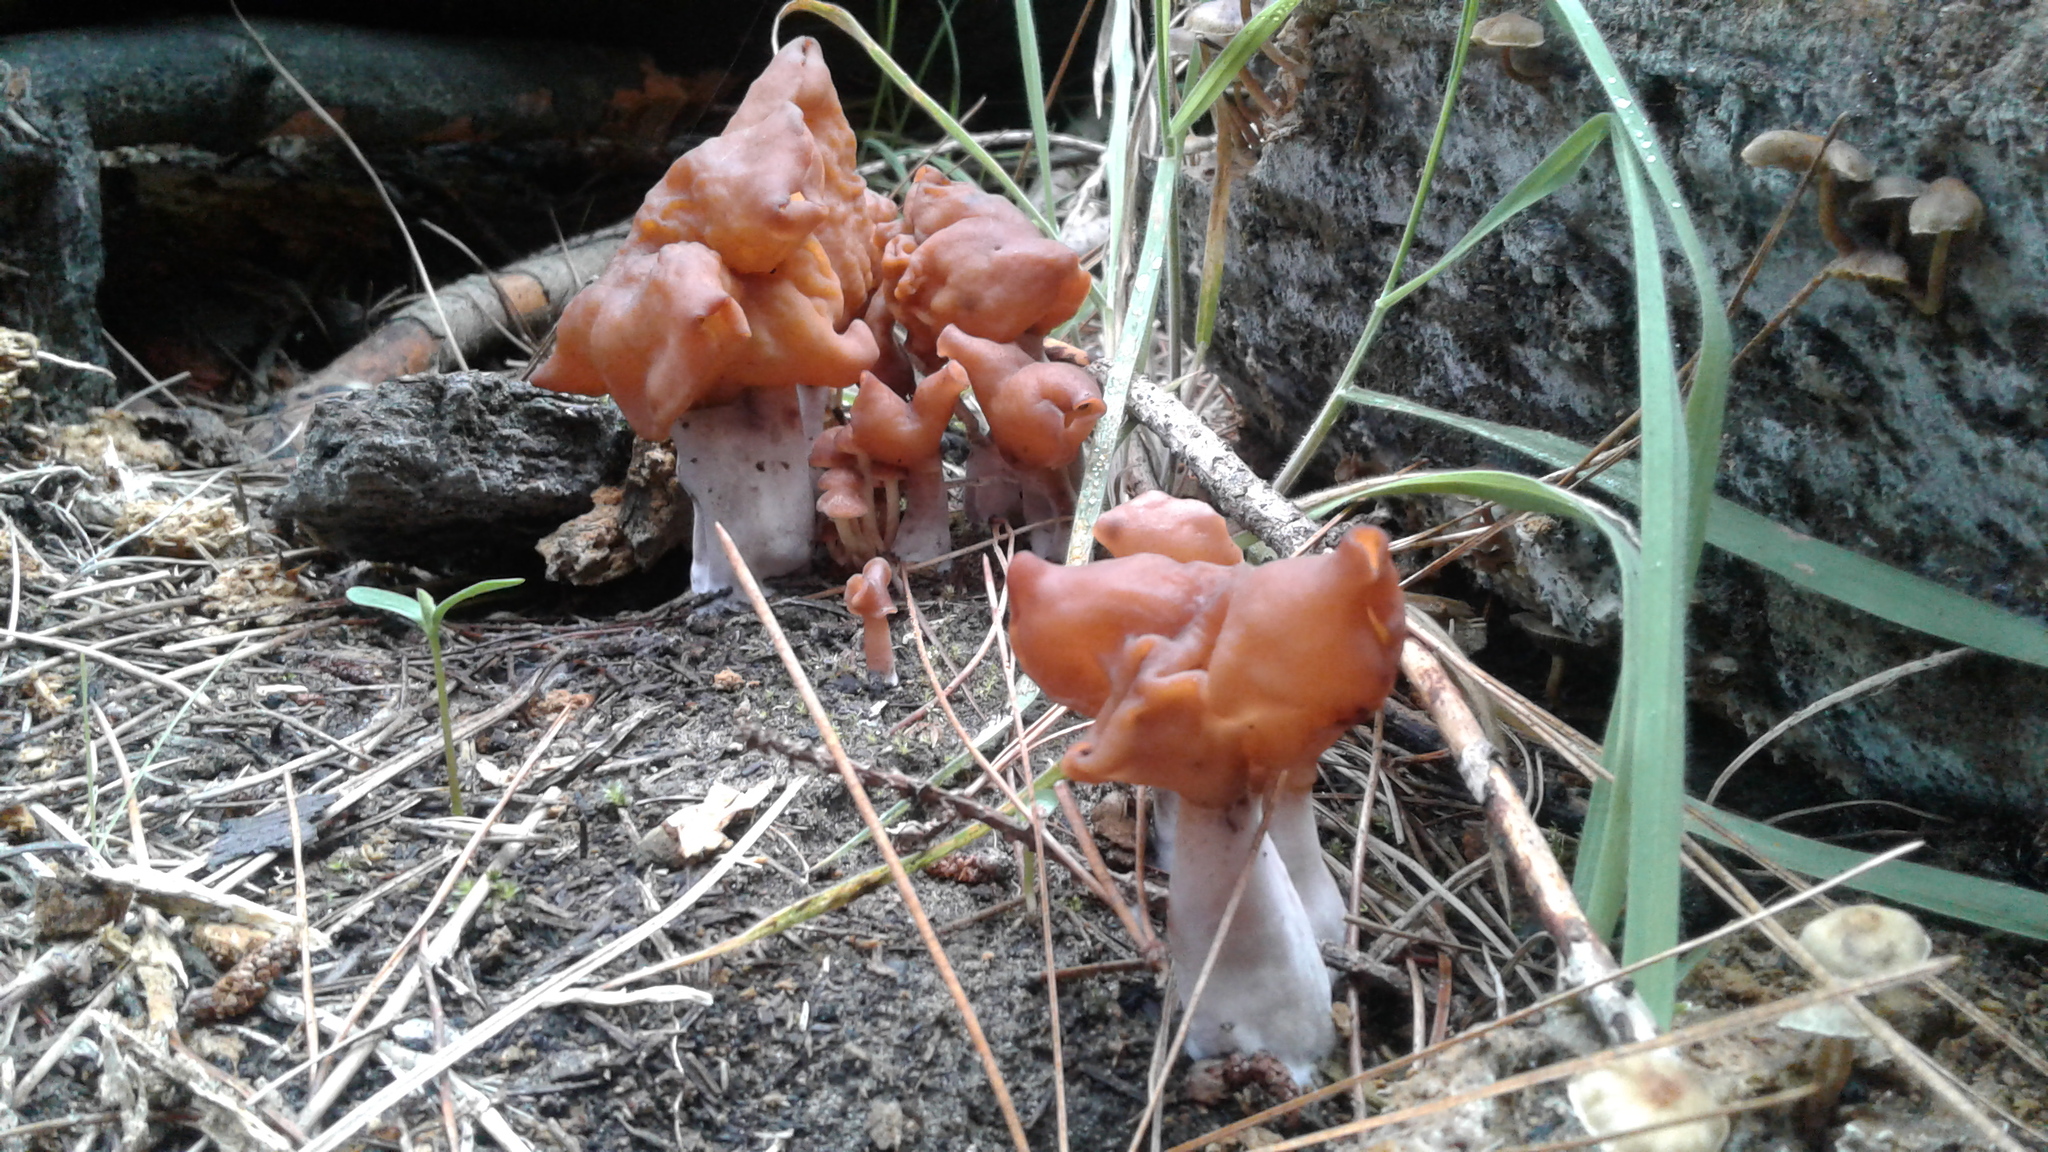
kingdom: Fungi
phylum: Ascomycota
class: Pezizomycetes
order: Pezizales
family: Discinaceae
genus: Gyromitra
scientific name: Gyromitra infula
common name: Pouched false morel
